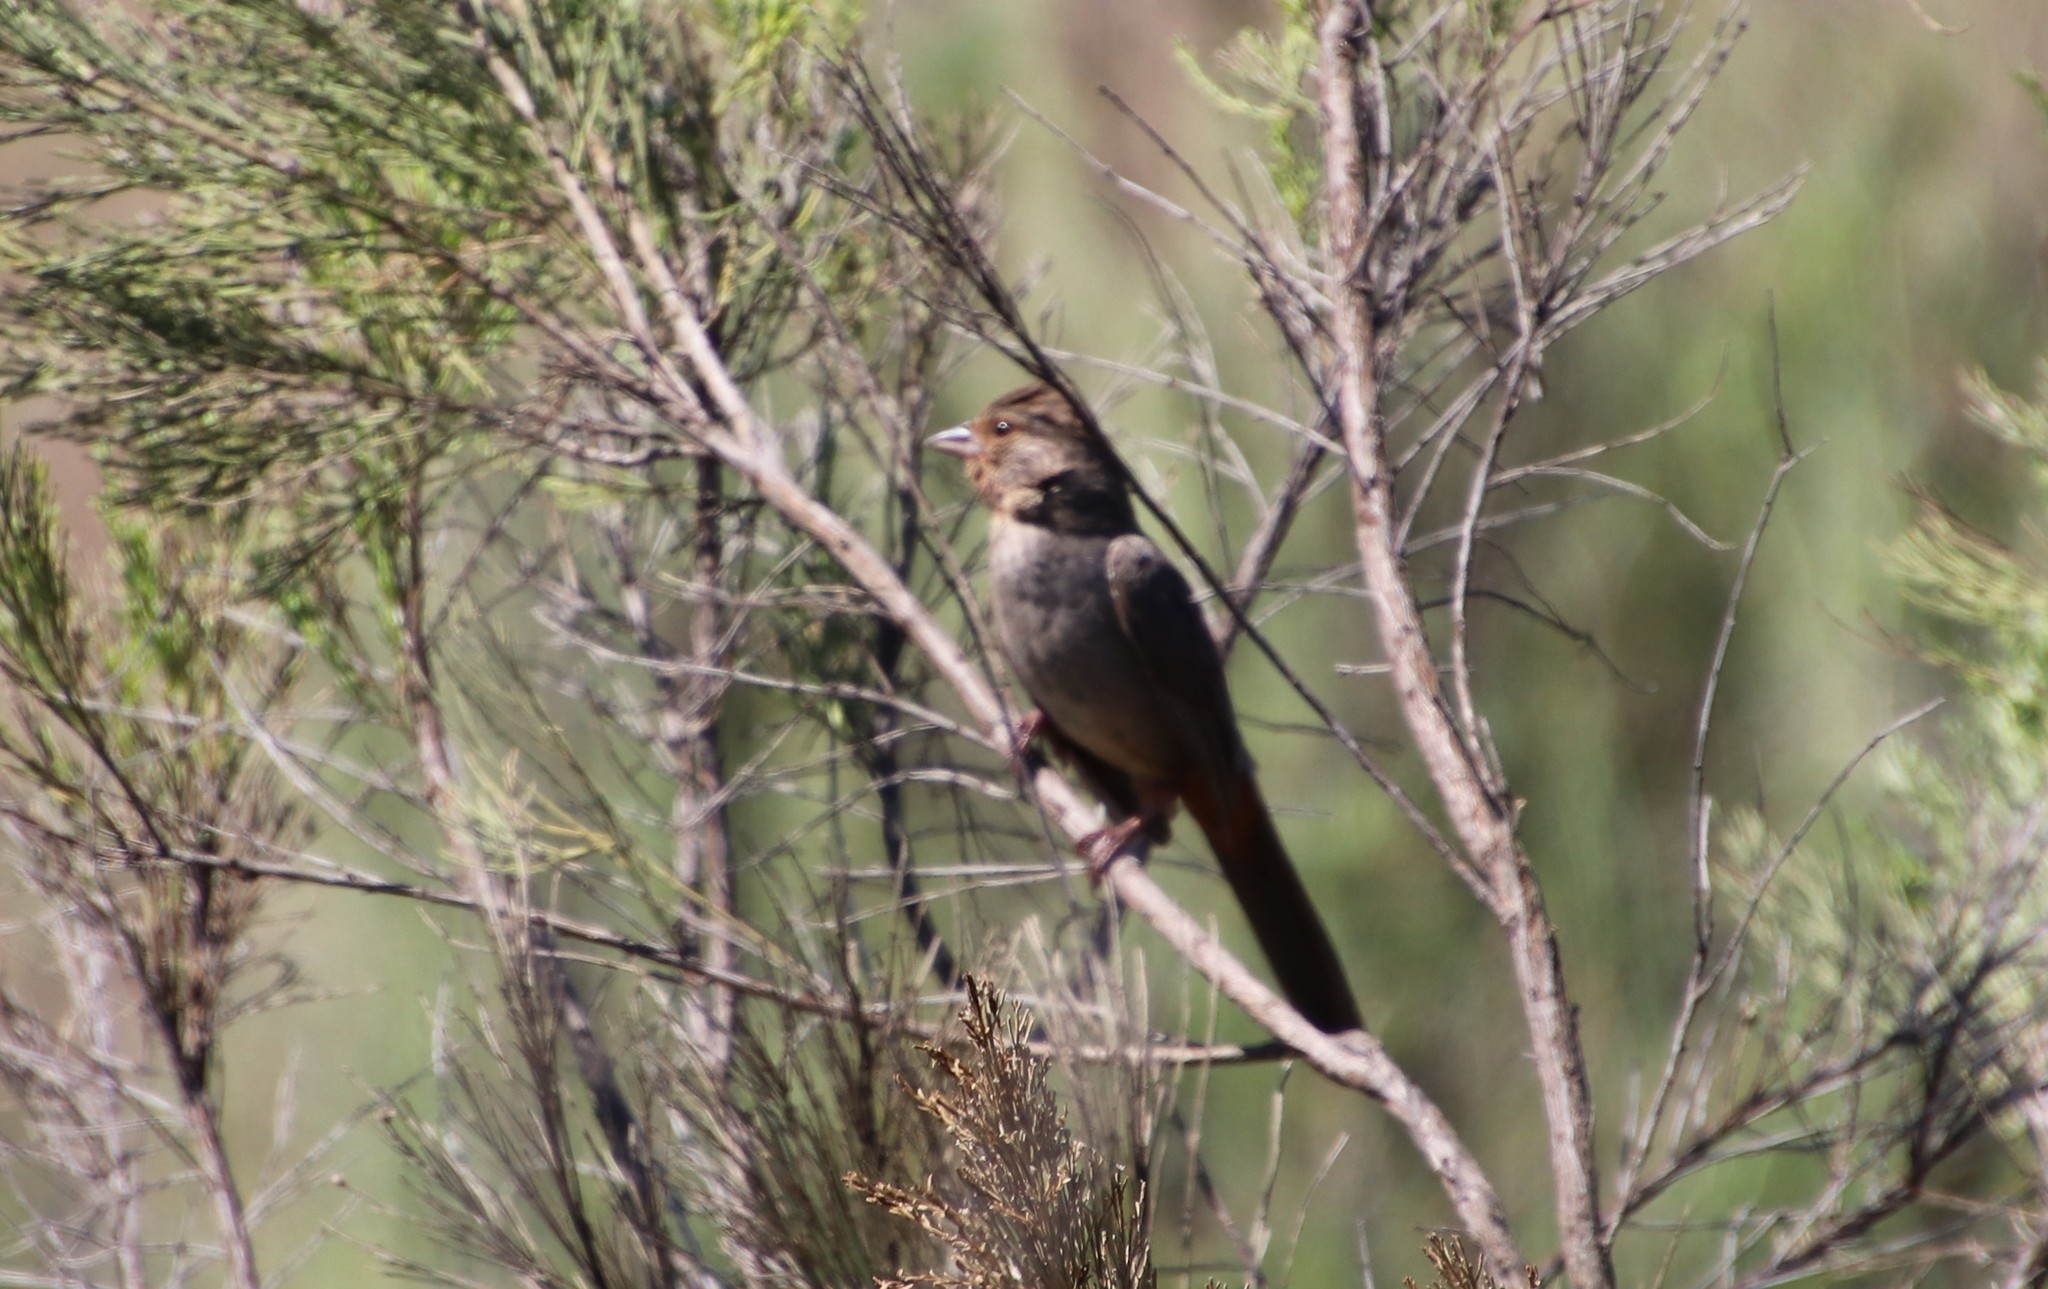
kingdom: Animalia
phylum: Chordata
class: Aves
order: Passeriformes
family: Passerellidae
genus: Melozone
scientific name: Melozone crissalis
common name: California towhee
